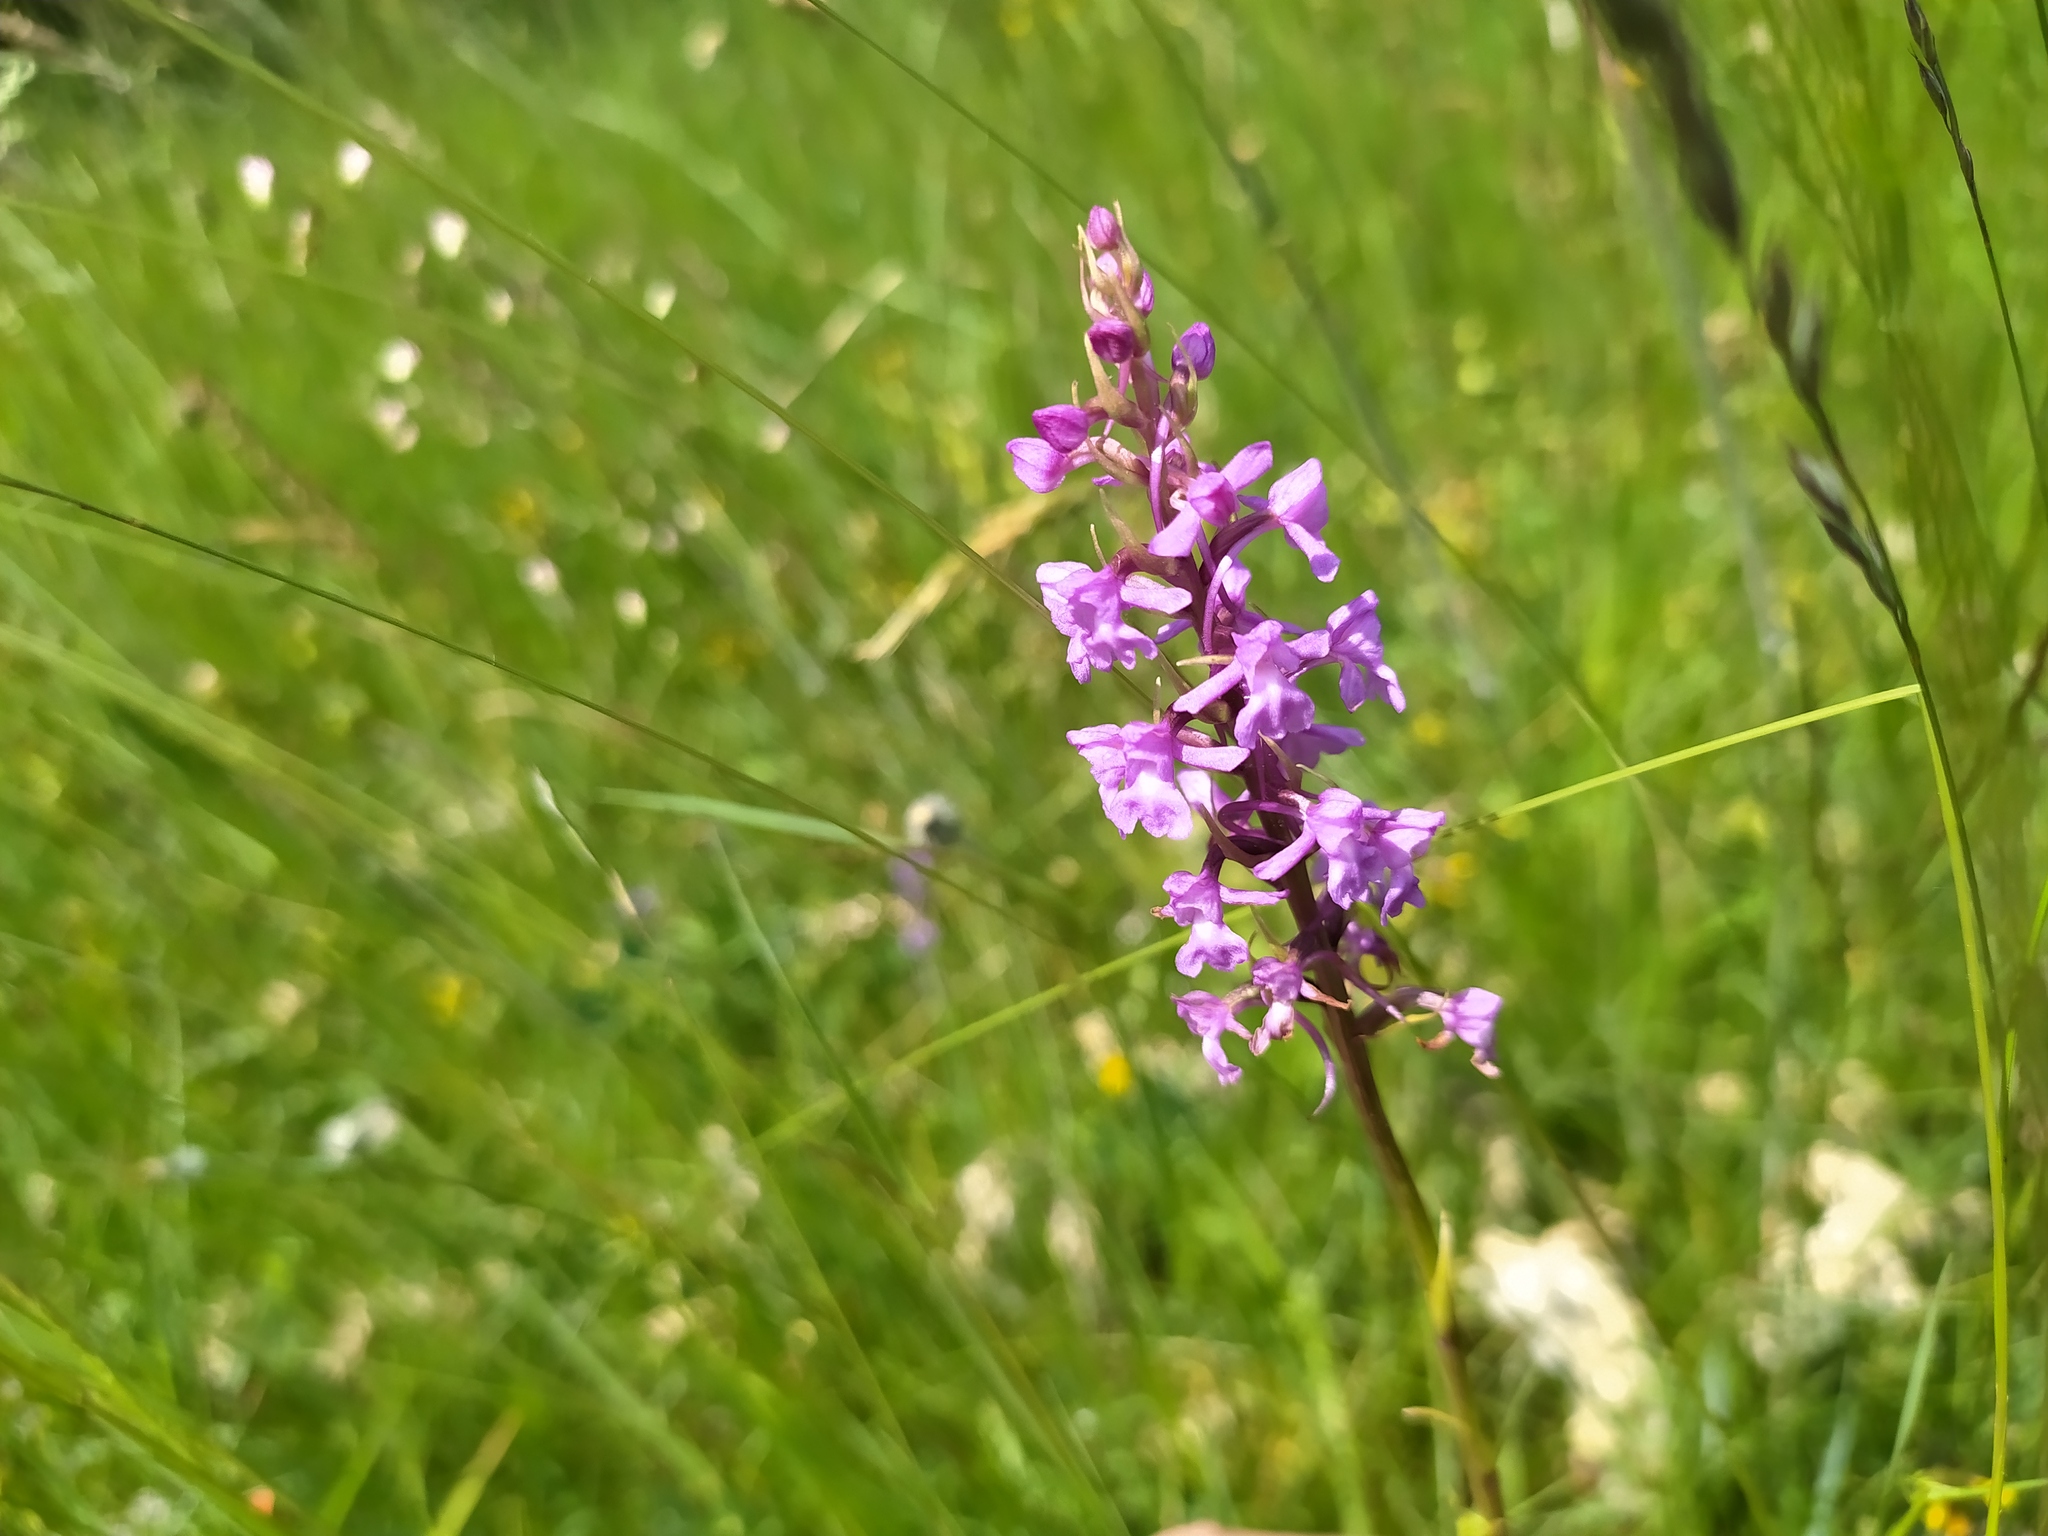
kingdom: Plantae
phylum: Tracheophyta
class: Liliopsida
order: Asparagales
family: Orchidaceae
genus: Gymnadenia
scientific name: Gymnadenia conopsea
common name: Fragrant orchid
